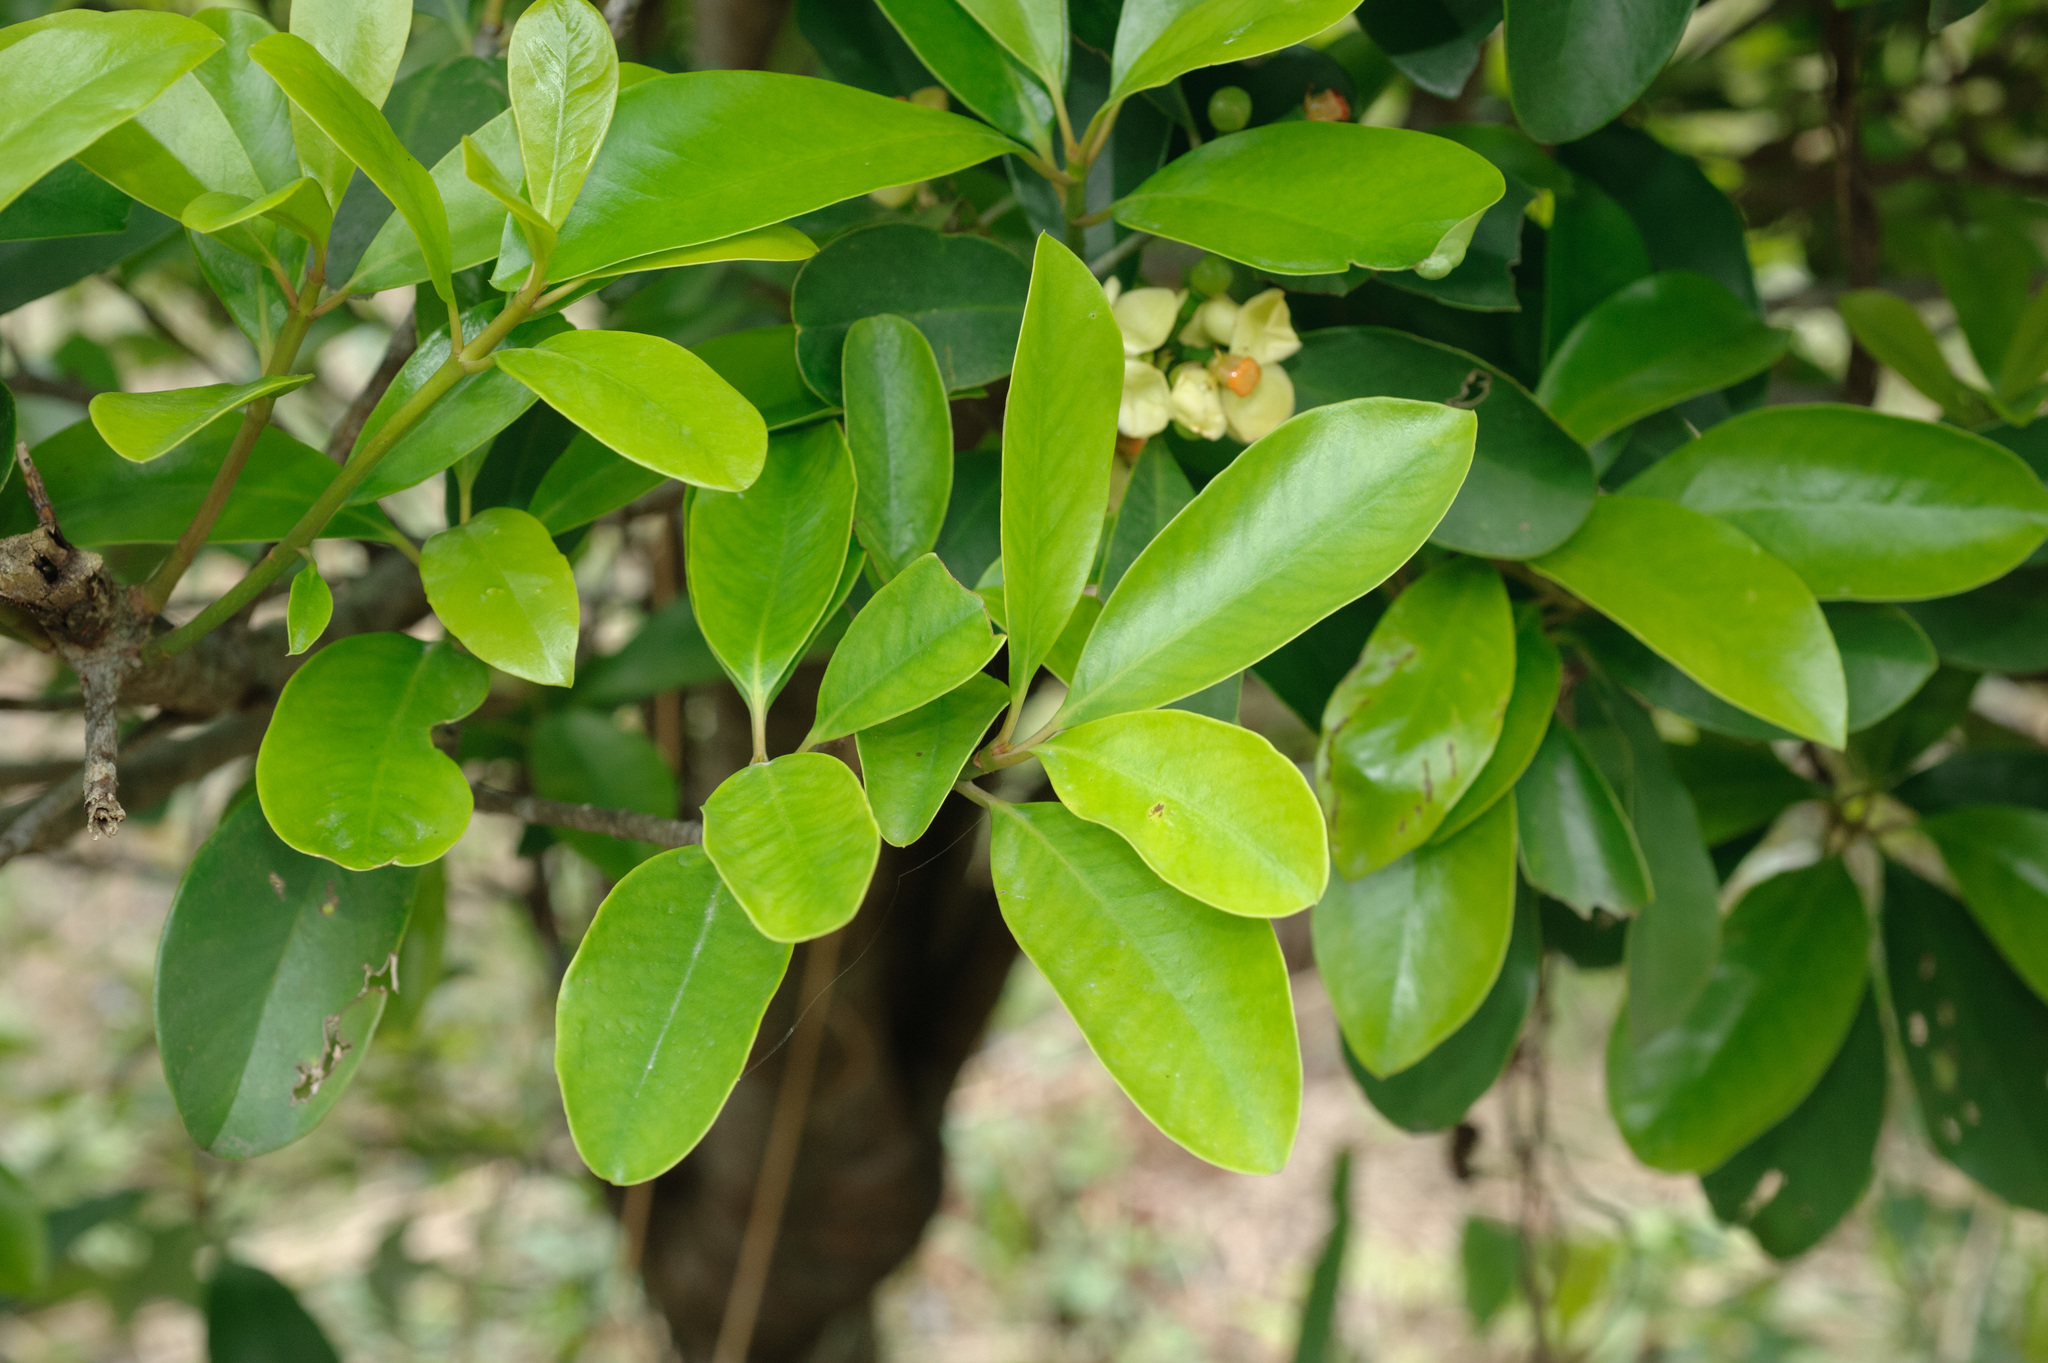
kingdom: Plantae
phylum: Tracheophyta
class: Magnoliopsida
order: Malpighiales
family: Clusiaceae
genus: Garcinia
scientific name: Garcinia multiflora
